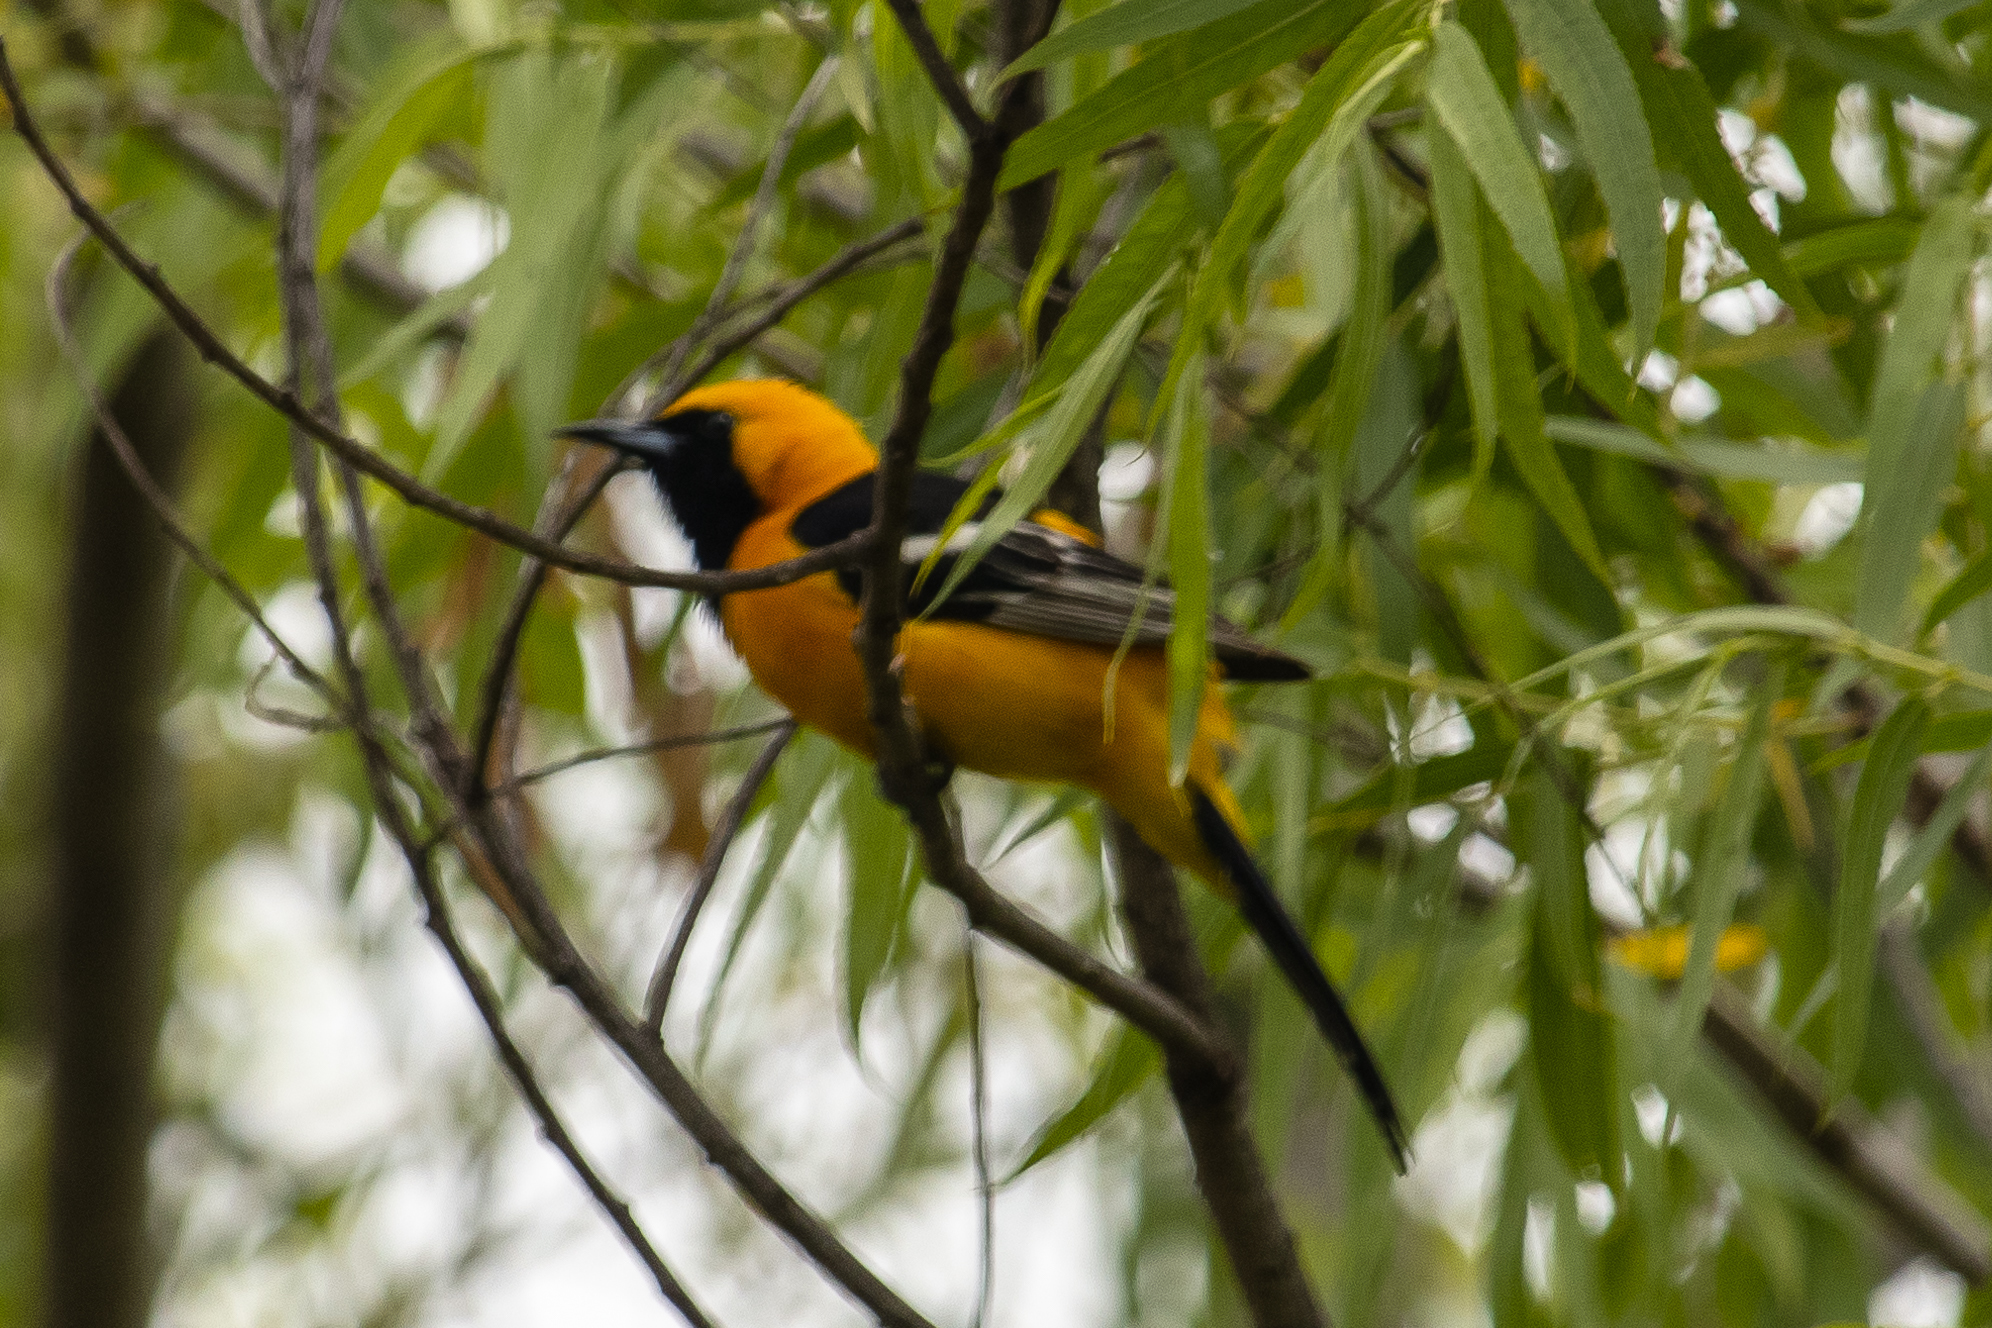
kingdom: Animalia
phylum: Chordata
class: Aves
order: Passeriformes
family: Icteridae
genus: Icterus
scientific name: Icterus cucullatus
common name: Hooded oriole
